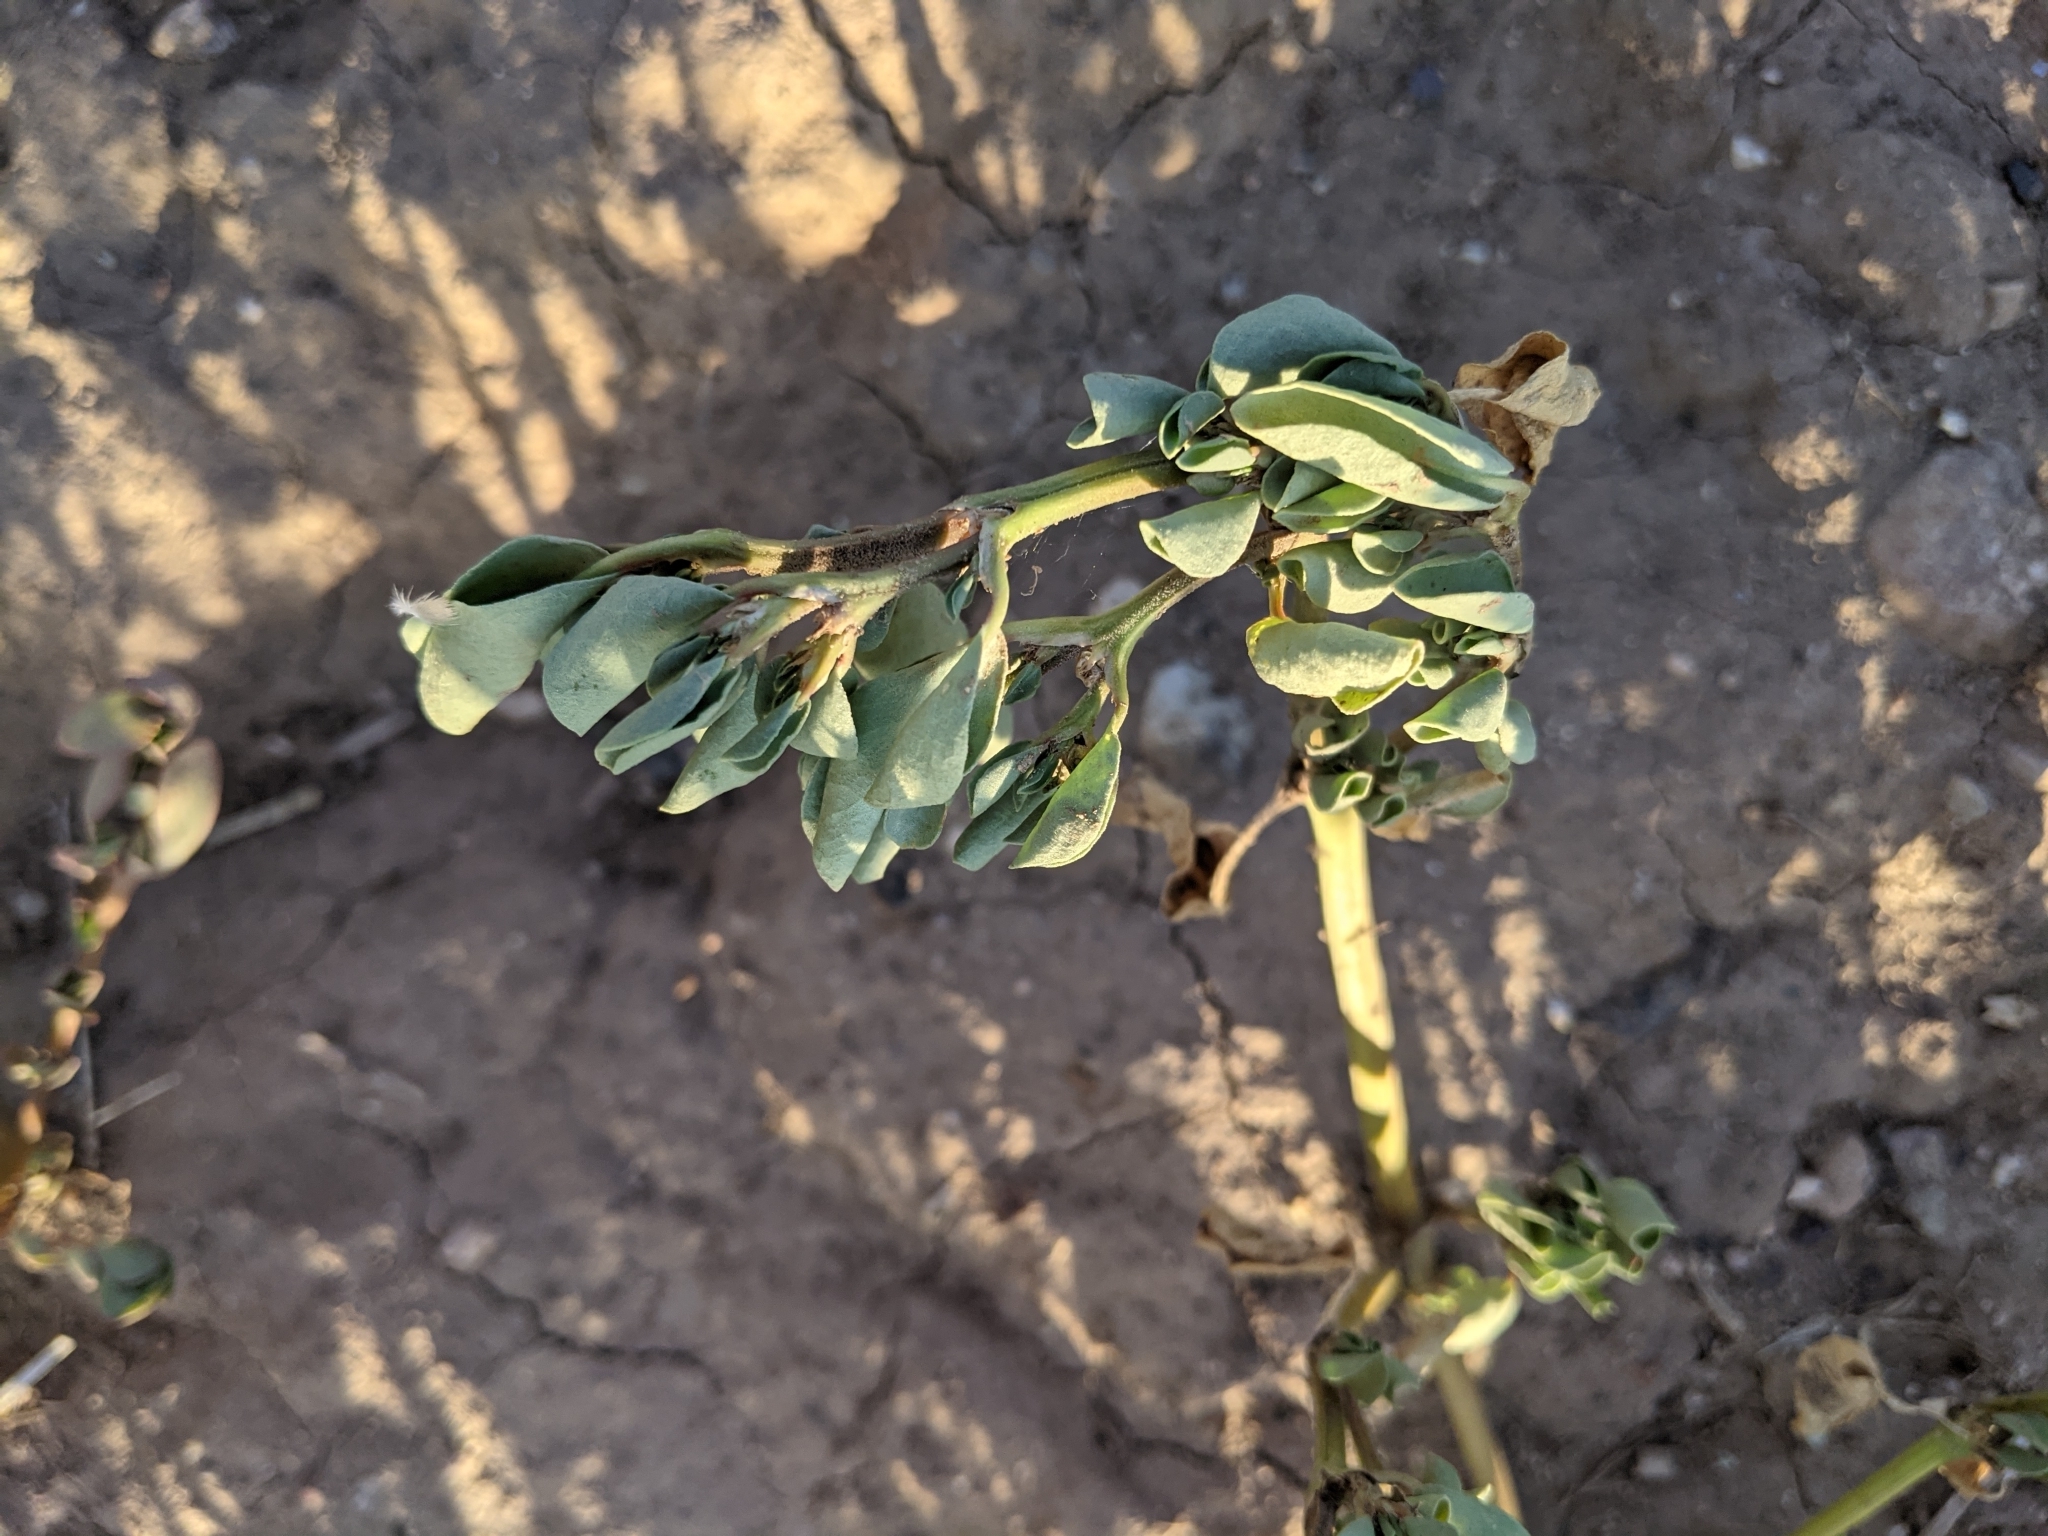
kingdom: Plantae
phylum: Tracheophyta
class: Magnoliopsida
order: Caryophyllales
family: Portulacaceae
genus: Portulaca
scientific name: Portulaca oleracea
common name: Common purslane
